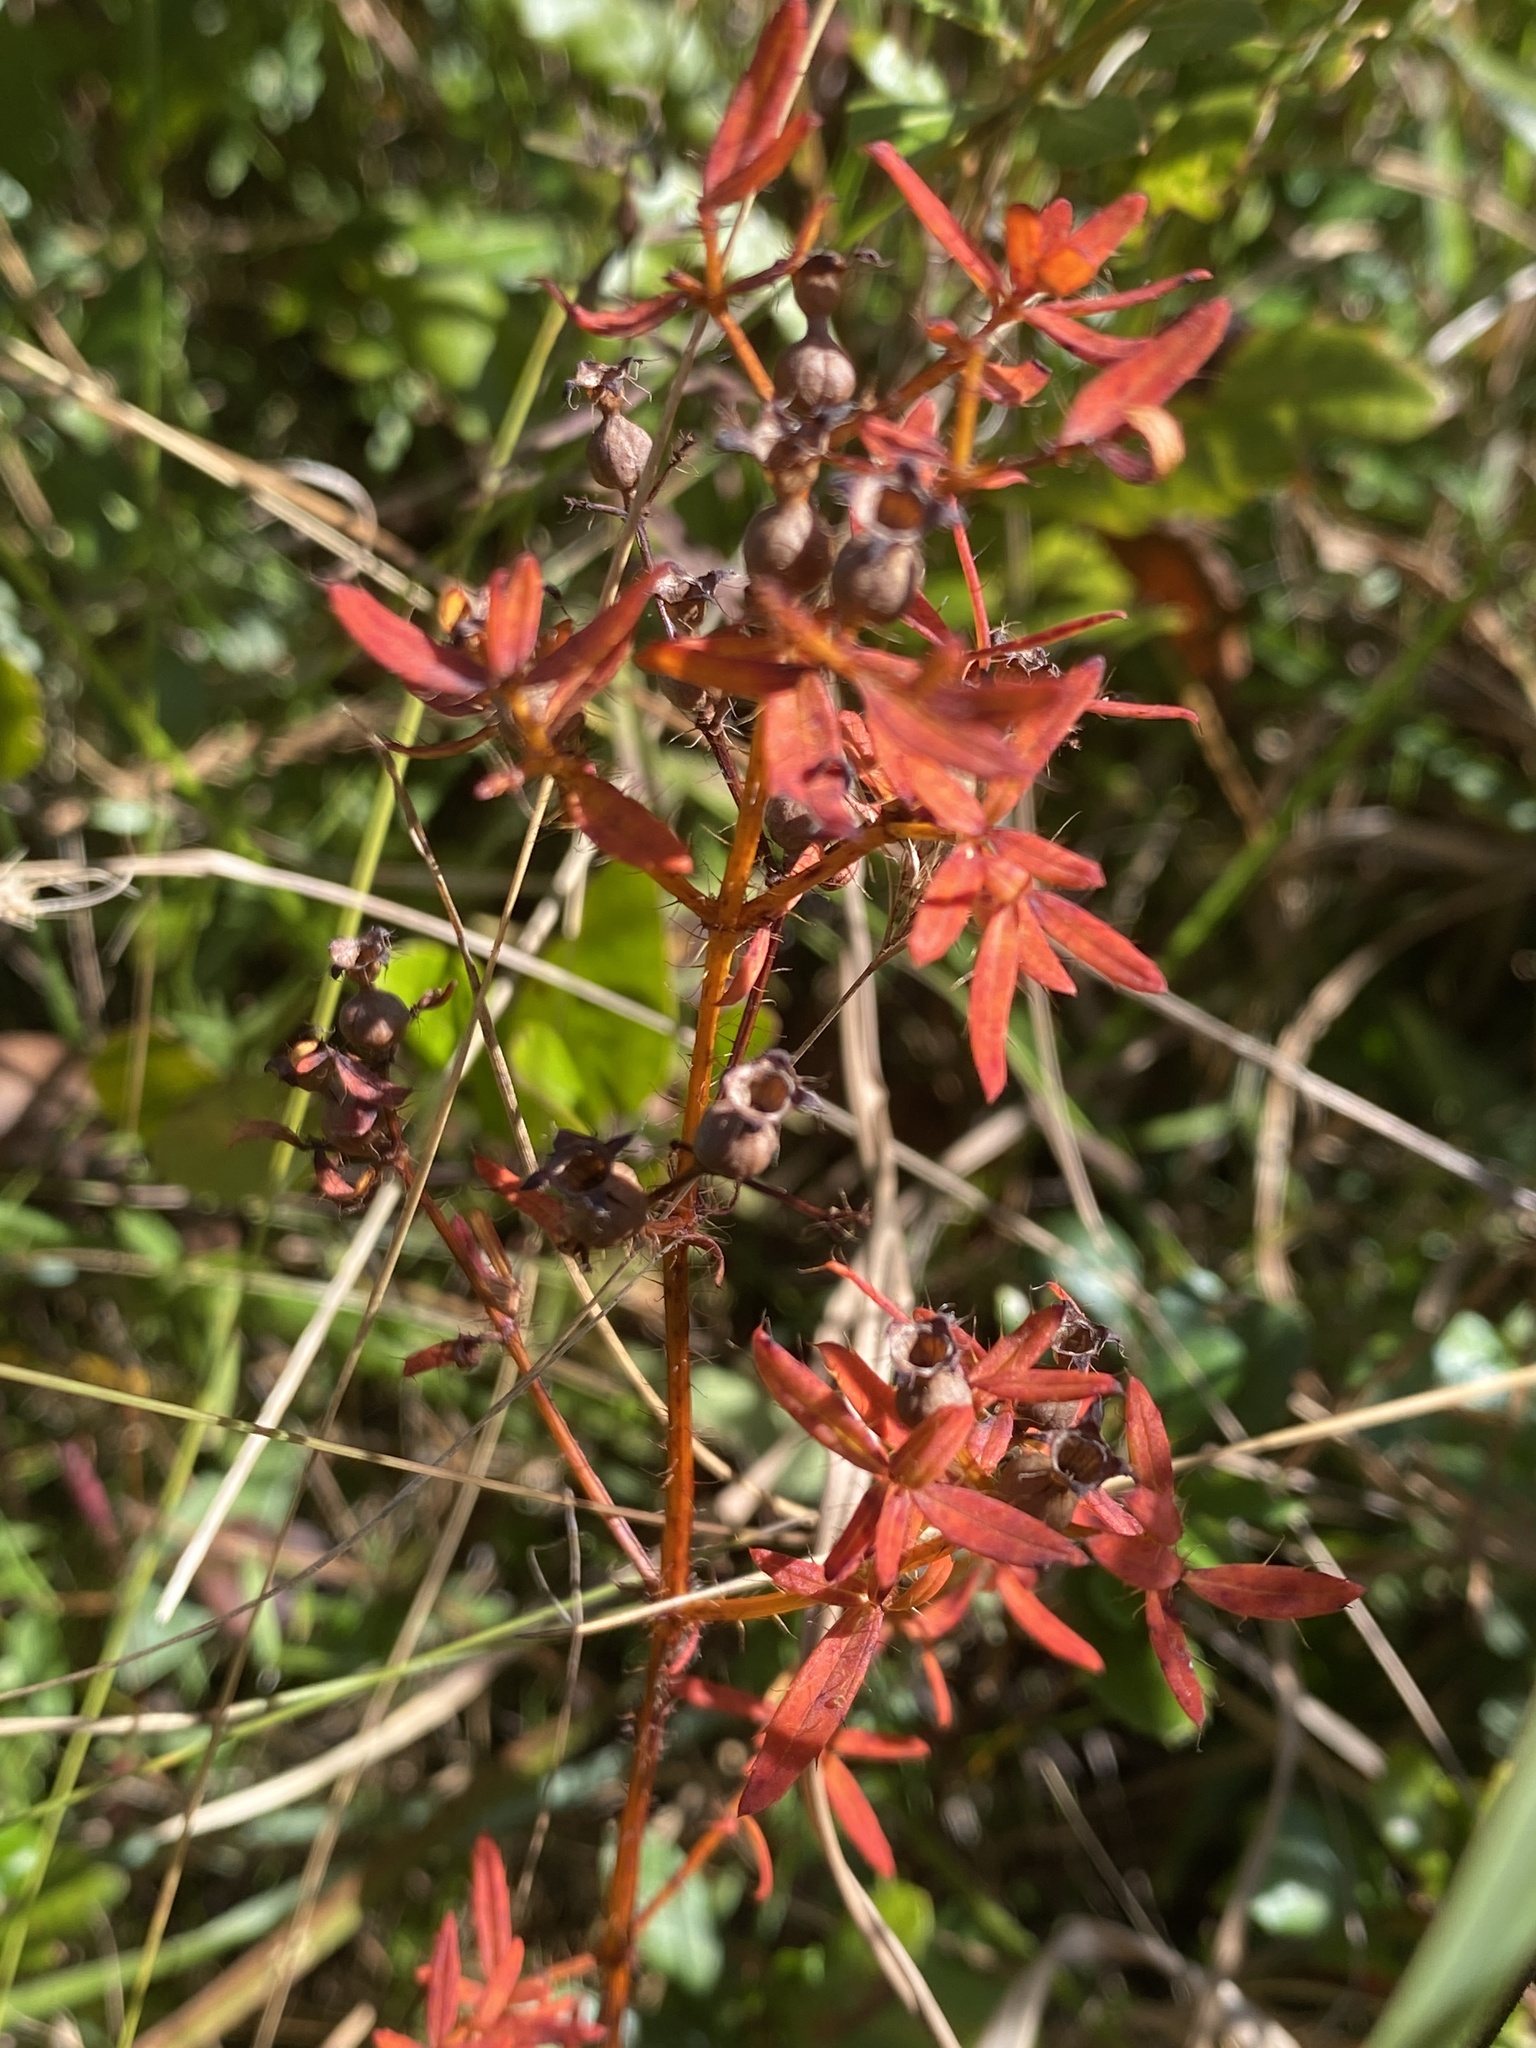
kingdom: Plantae
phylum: Tracheophyta
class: Magnoliopsida
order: Myrtales
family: Melastomataceae
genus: Rhexia
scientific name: Rhexia lutea
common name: Golden meadow-beauty
